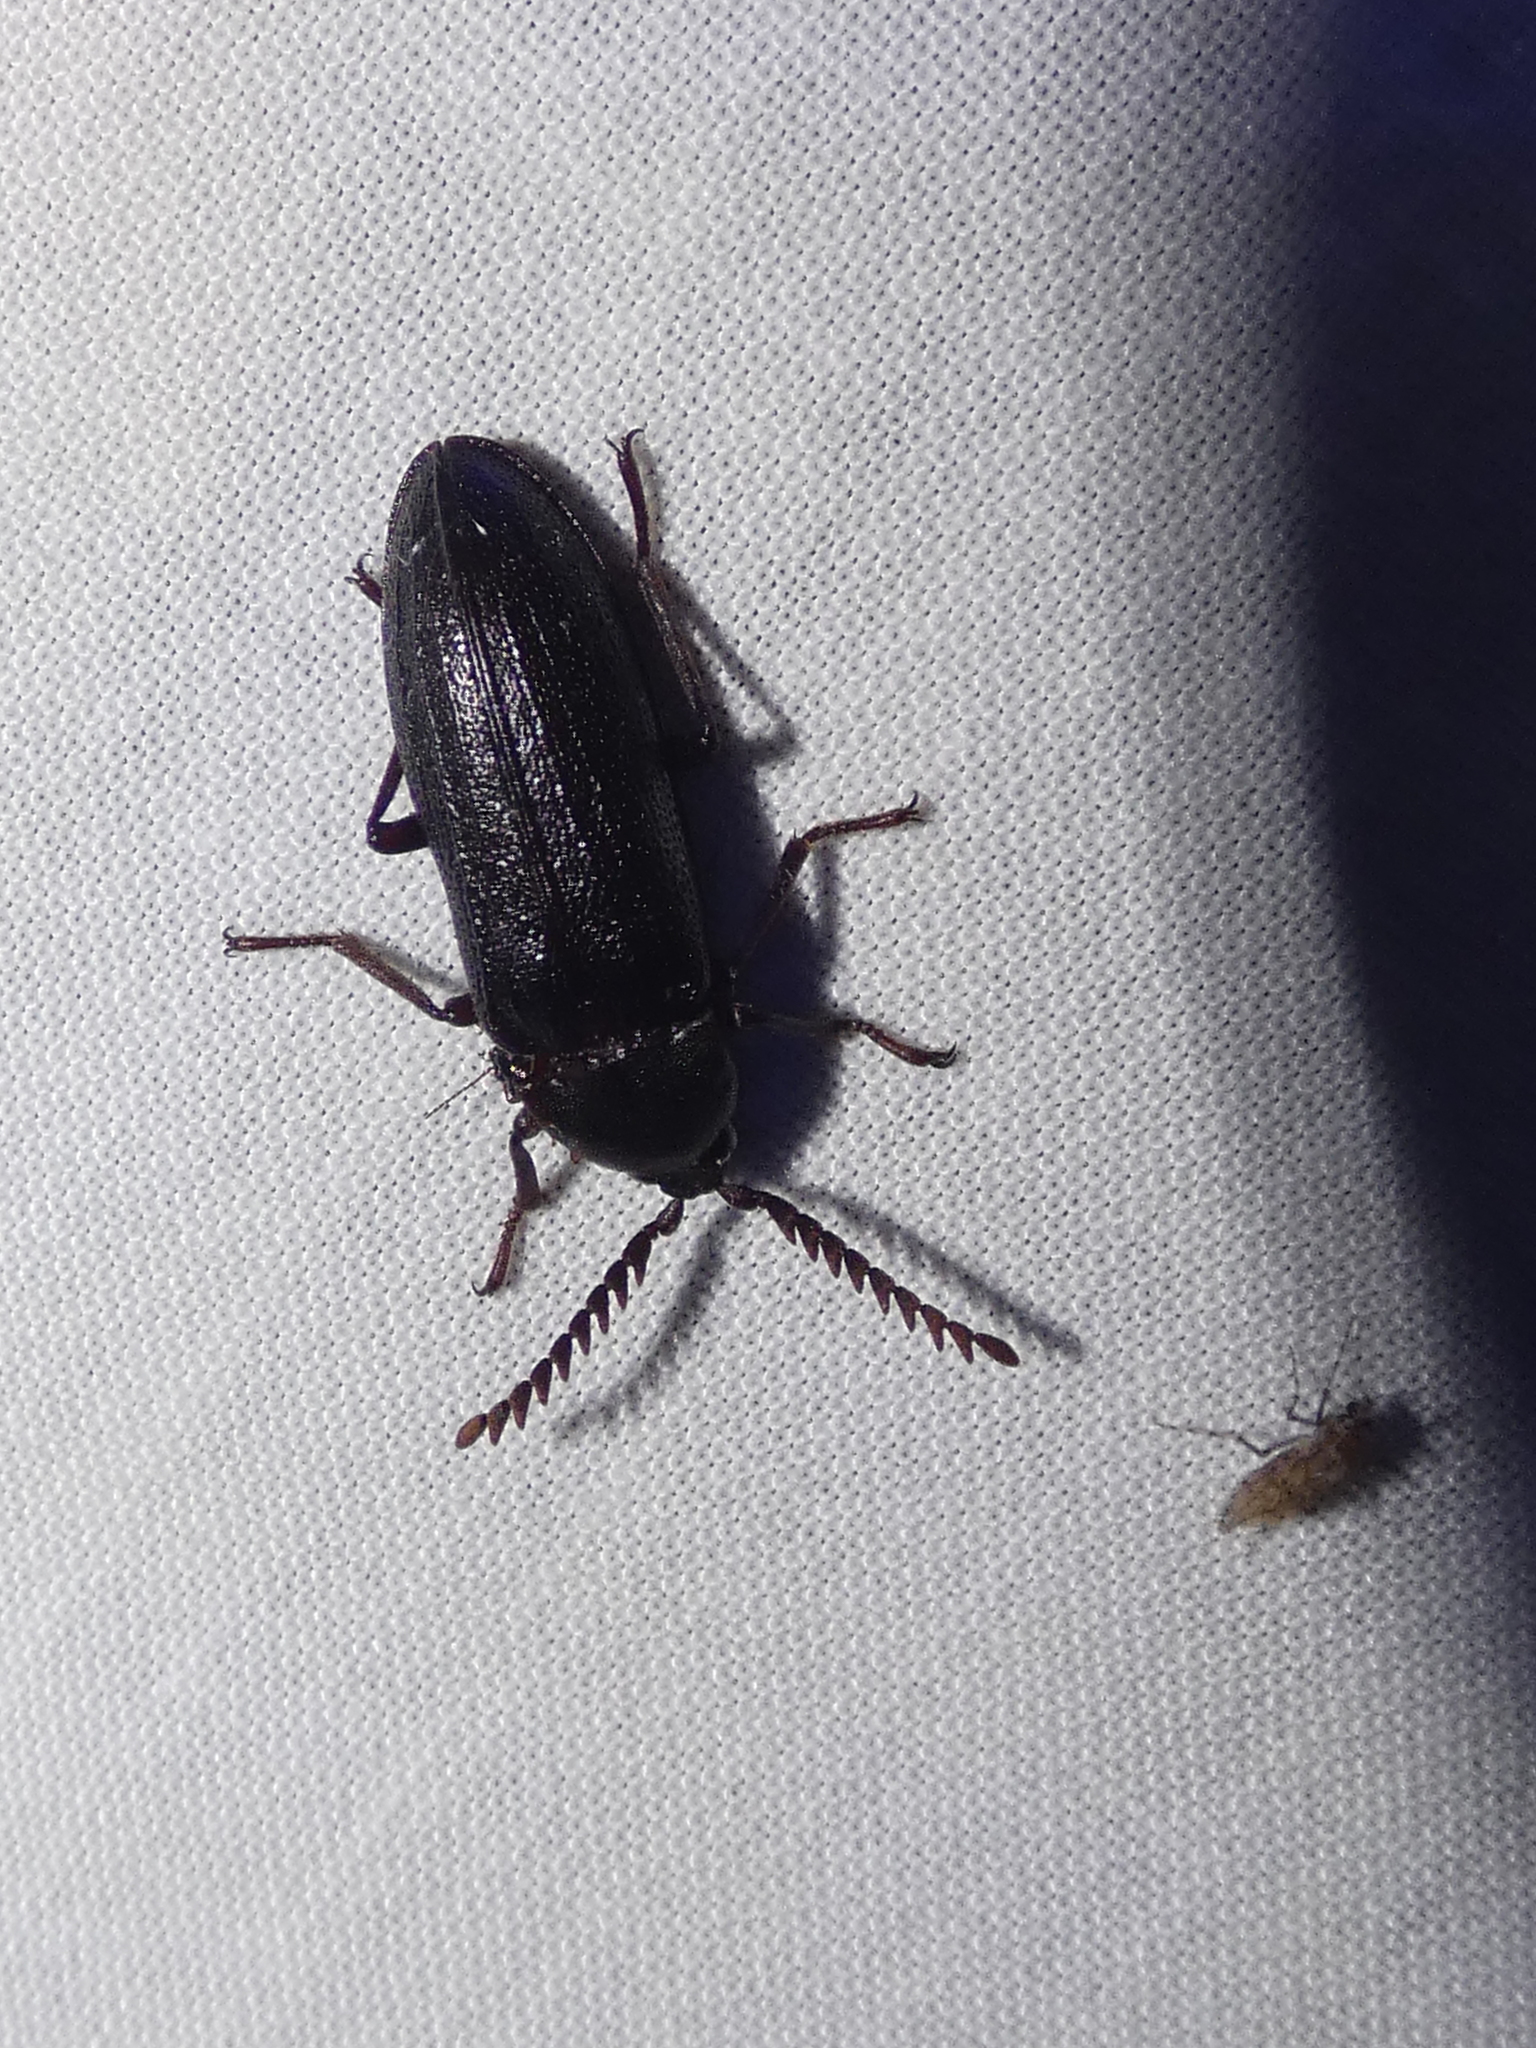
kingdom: Animalia
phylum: Arthropoda
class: Insecta
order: Coleoptera
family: Callirhipidae
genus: Zenoa
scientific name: Zenoa picea
